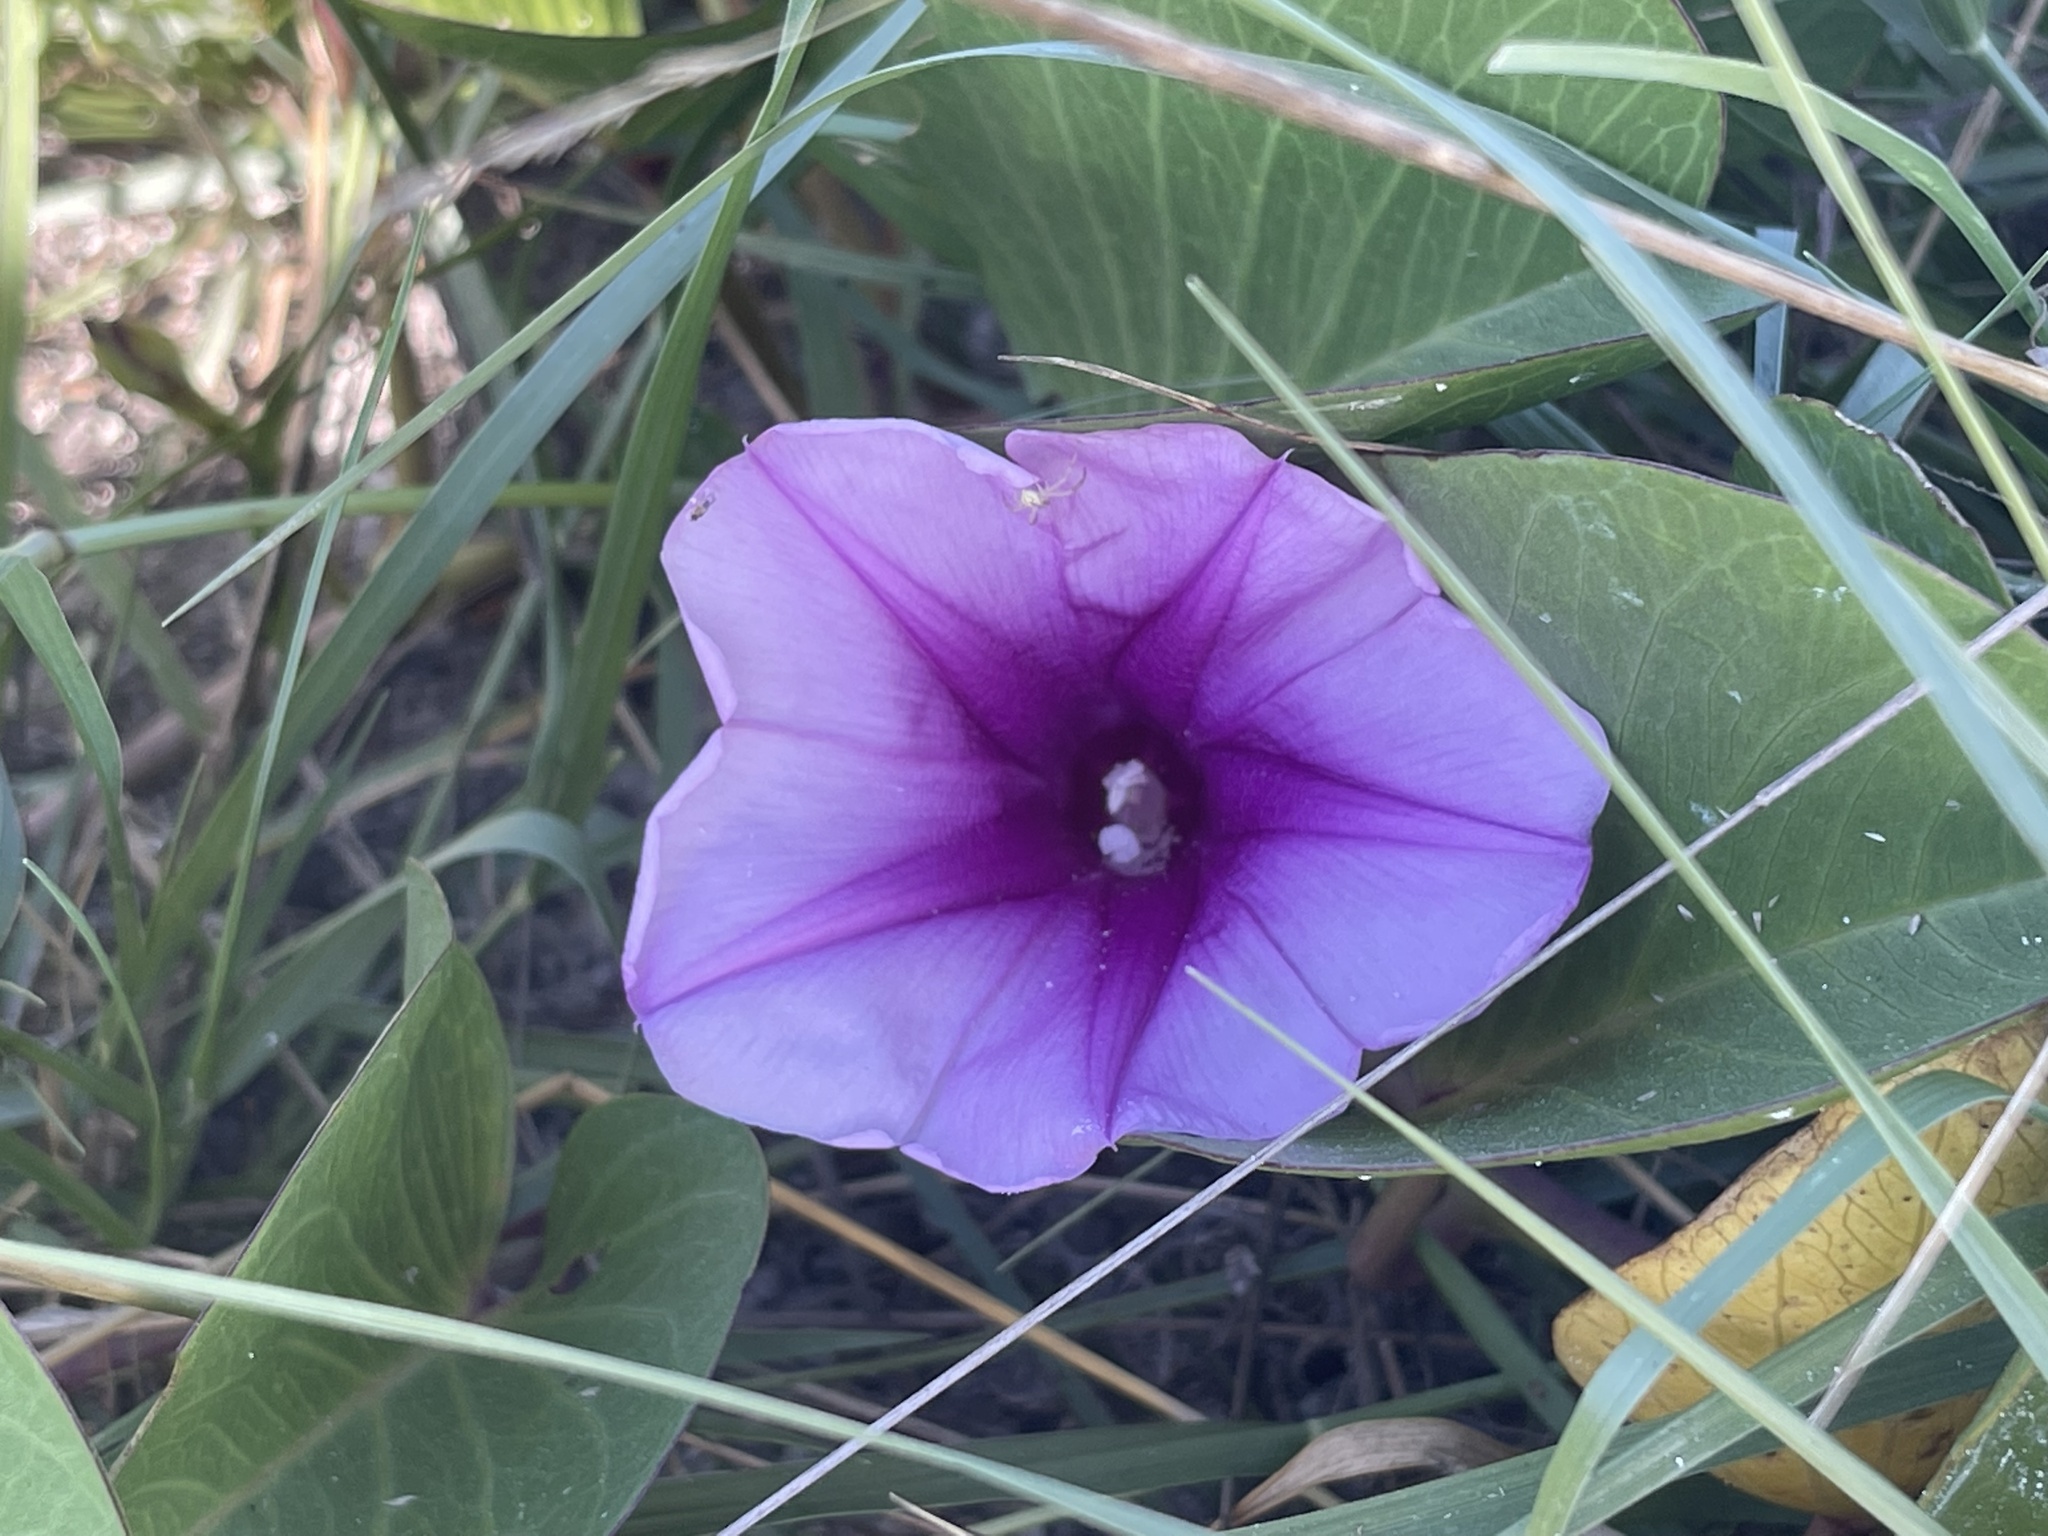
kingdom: Plantae
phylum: Tracheophyta
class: Magnoliopsida
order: Solanales
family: Convolvulaceae
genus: Ipomoea
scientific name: Ipomoea pes-caprae
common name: Beach morning glory
